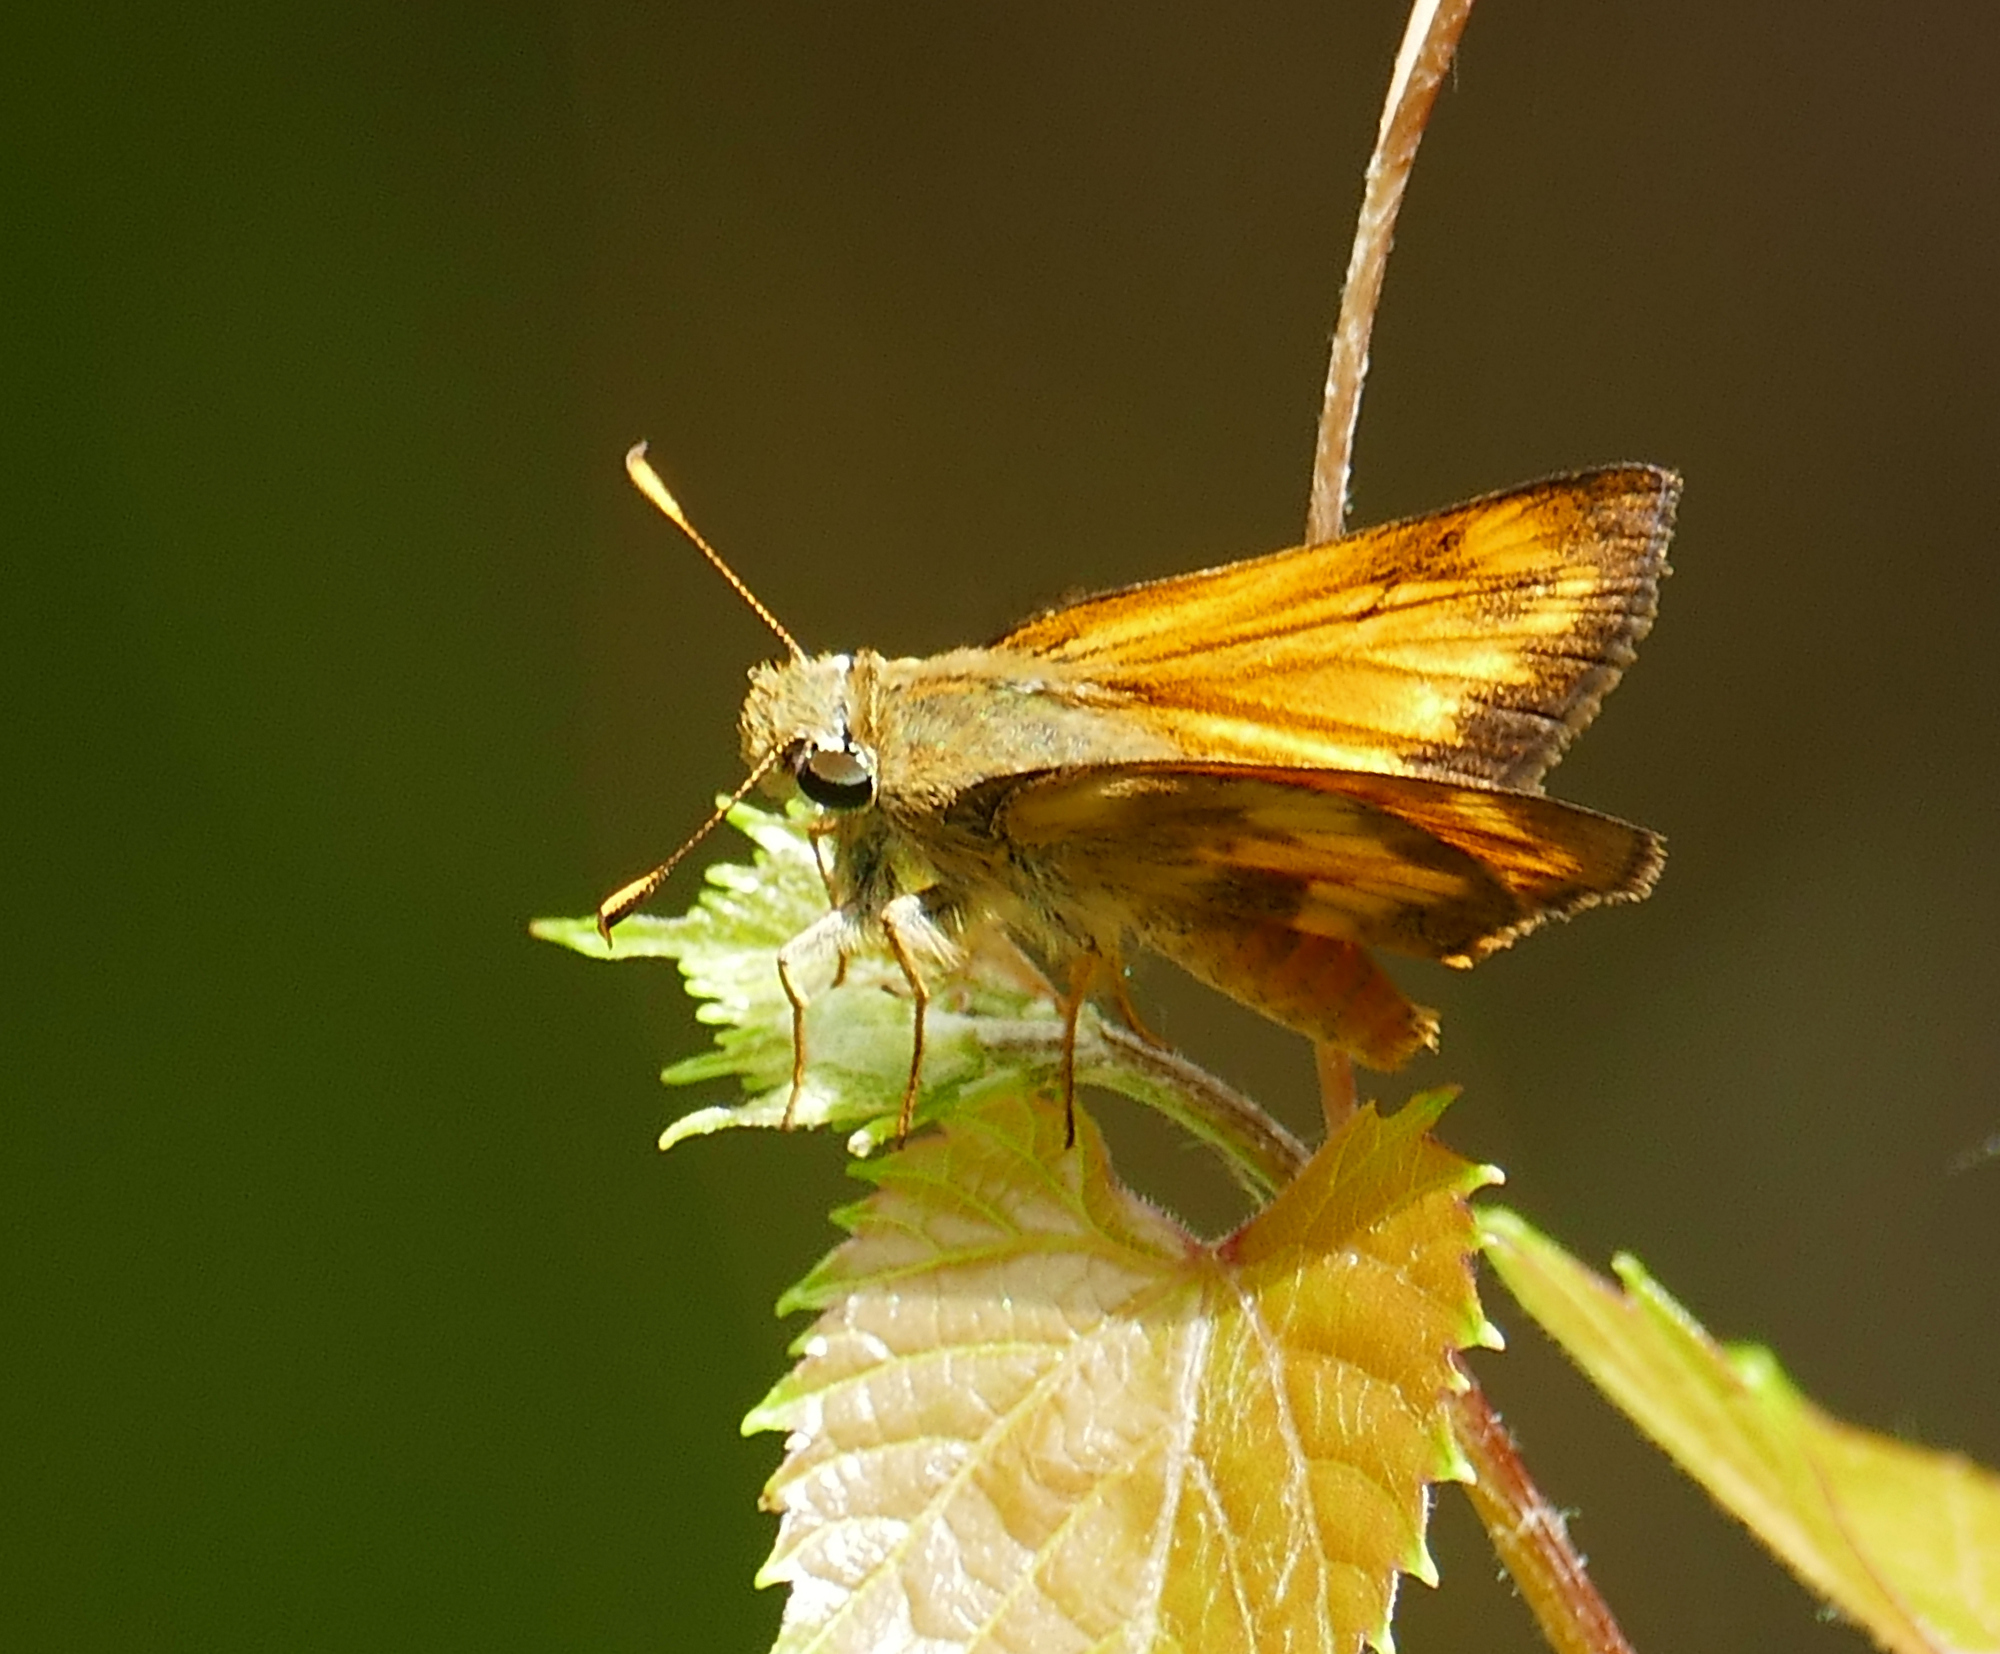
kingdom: Animalia
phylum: Arthropoda
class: Insecta
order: Lepidoptera
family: Hesperiidae
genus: Lon
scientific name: Lon taxiles
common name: Taxiles skipper
